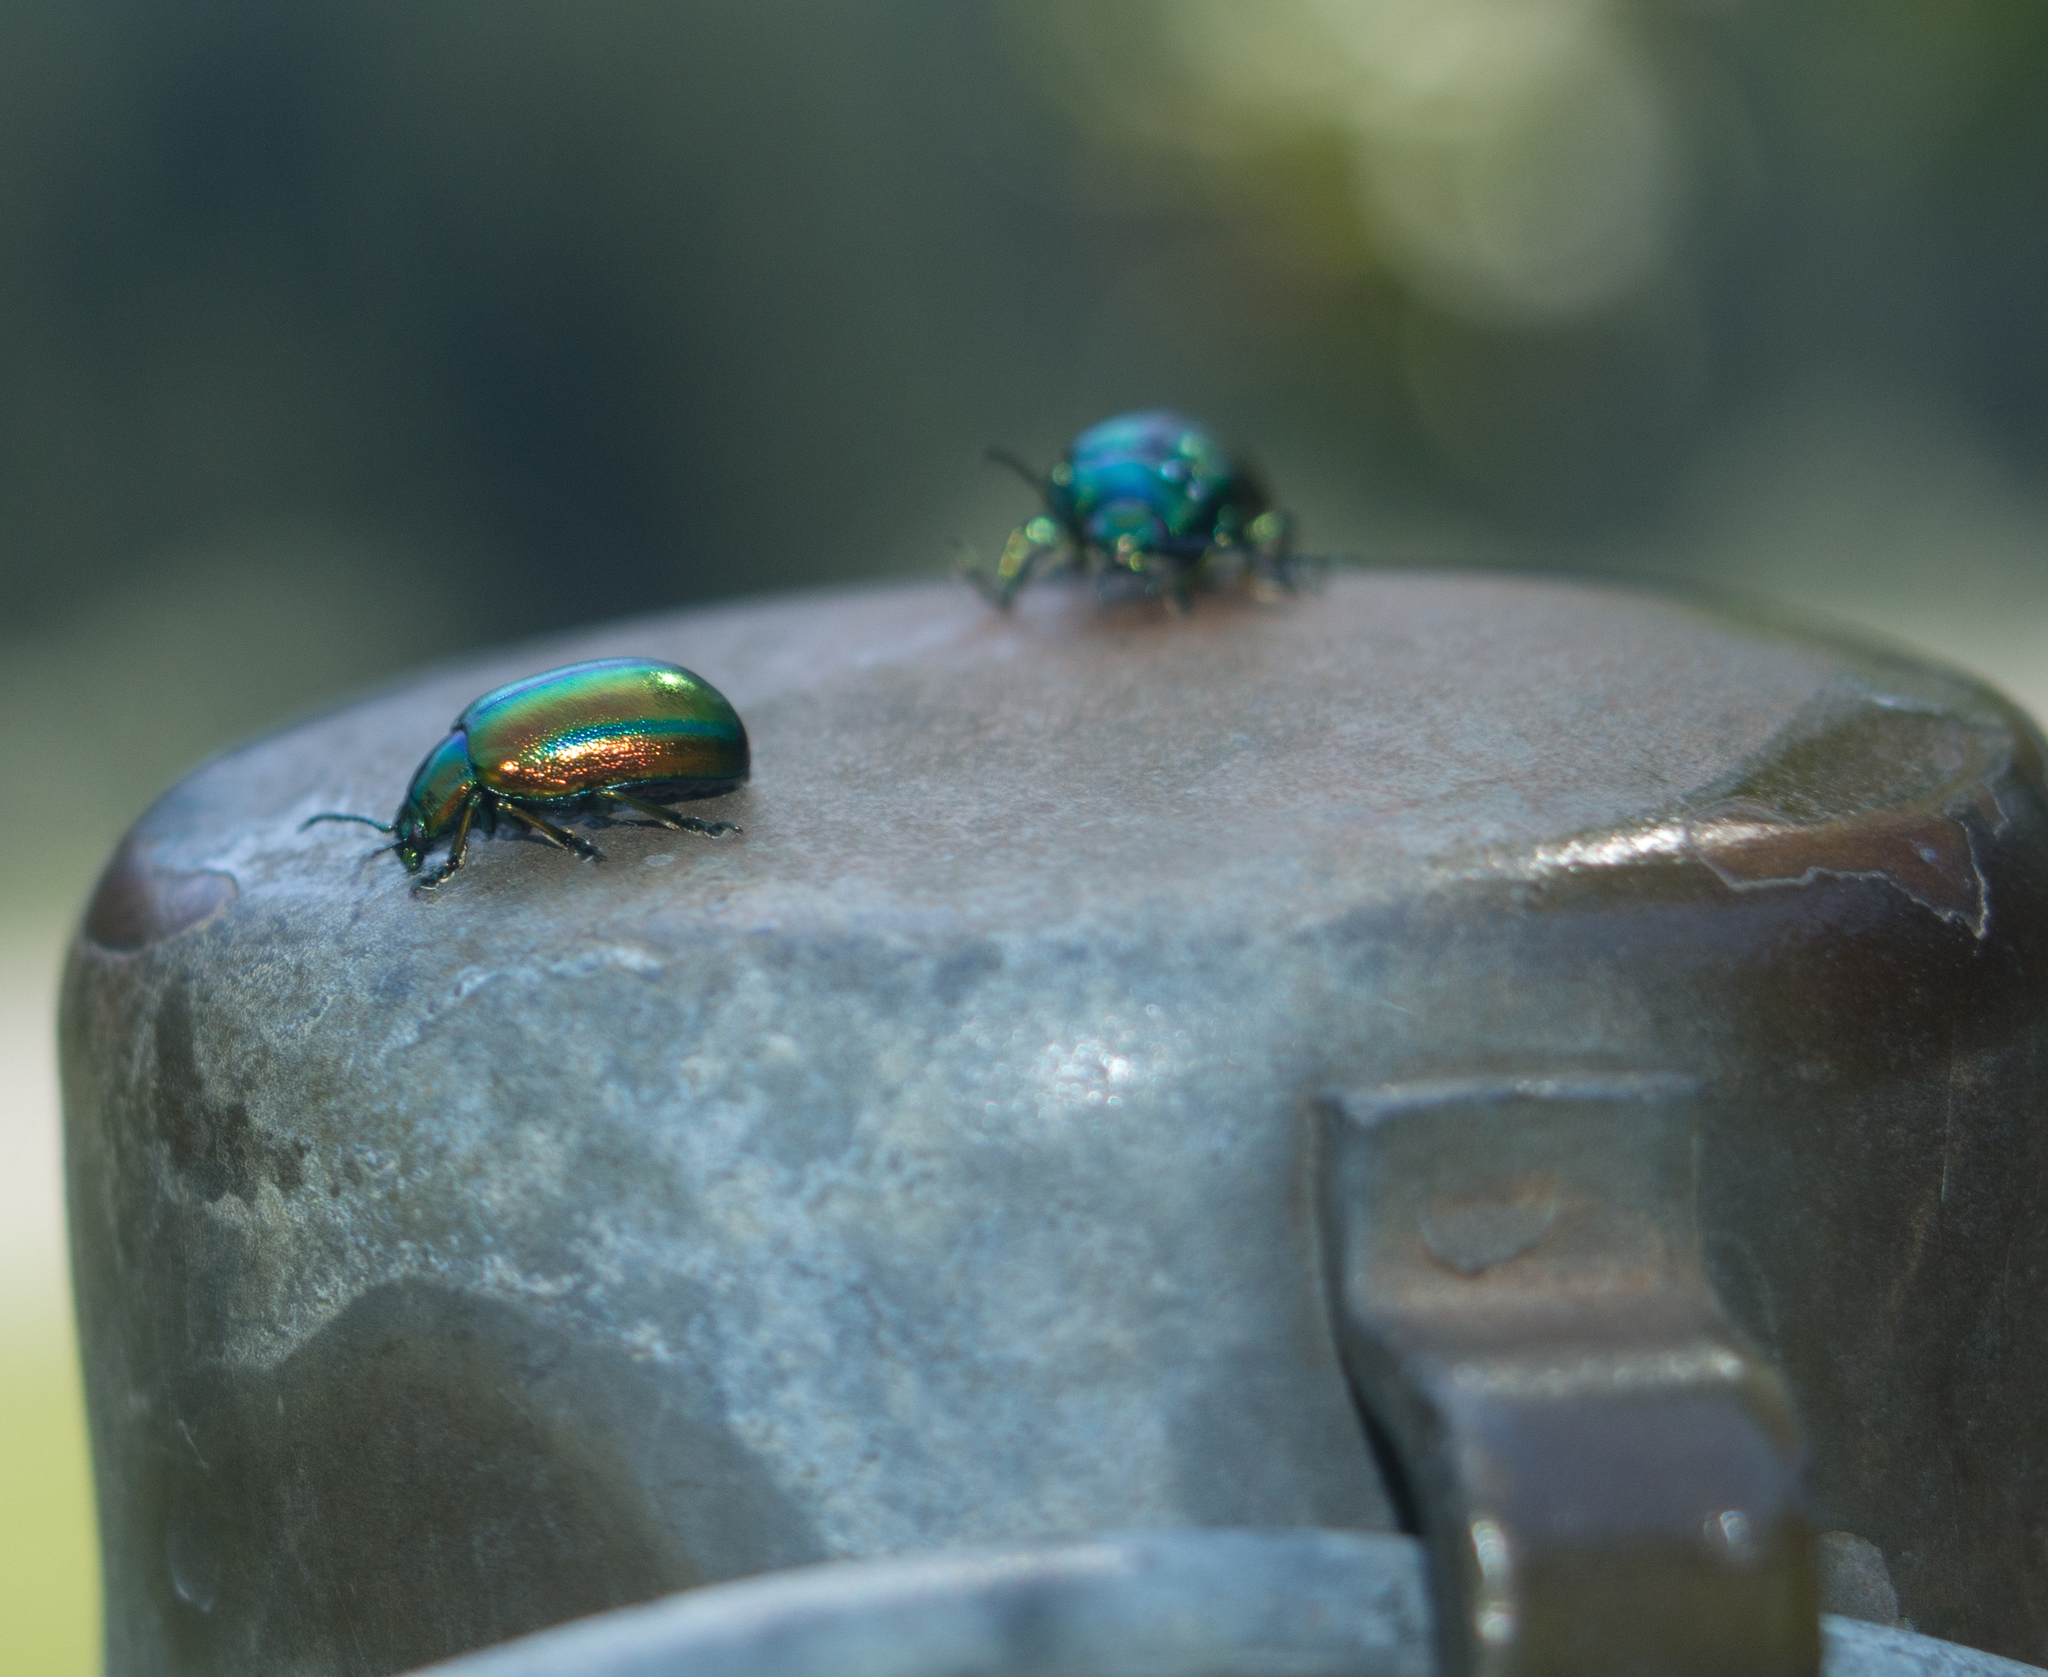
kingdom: Animalia
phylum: Arthropoda
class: Insecta
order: Coleoptera
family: Chrysomelidae
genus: Oreina
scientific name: Oreina
